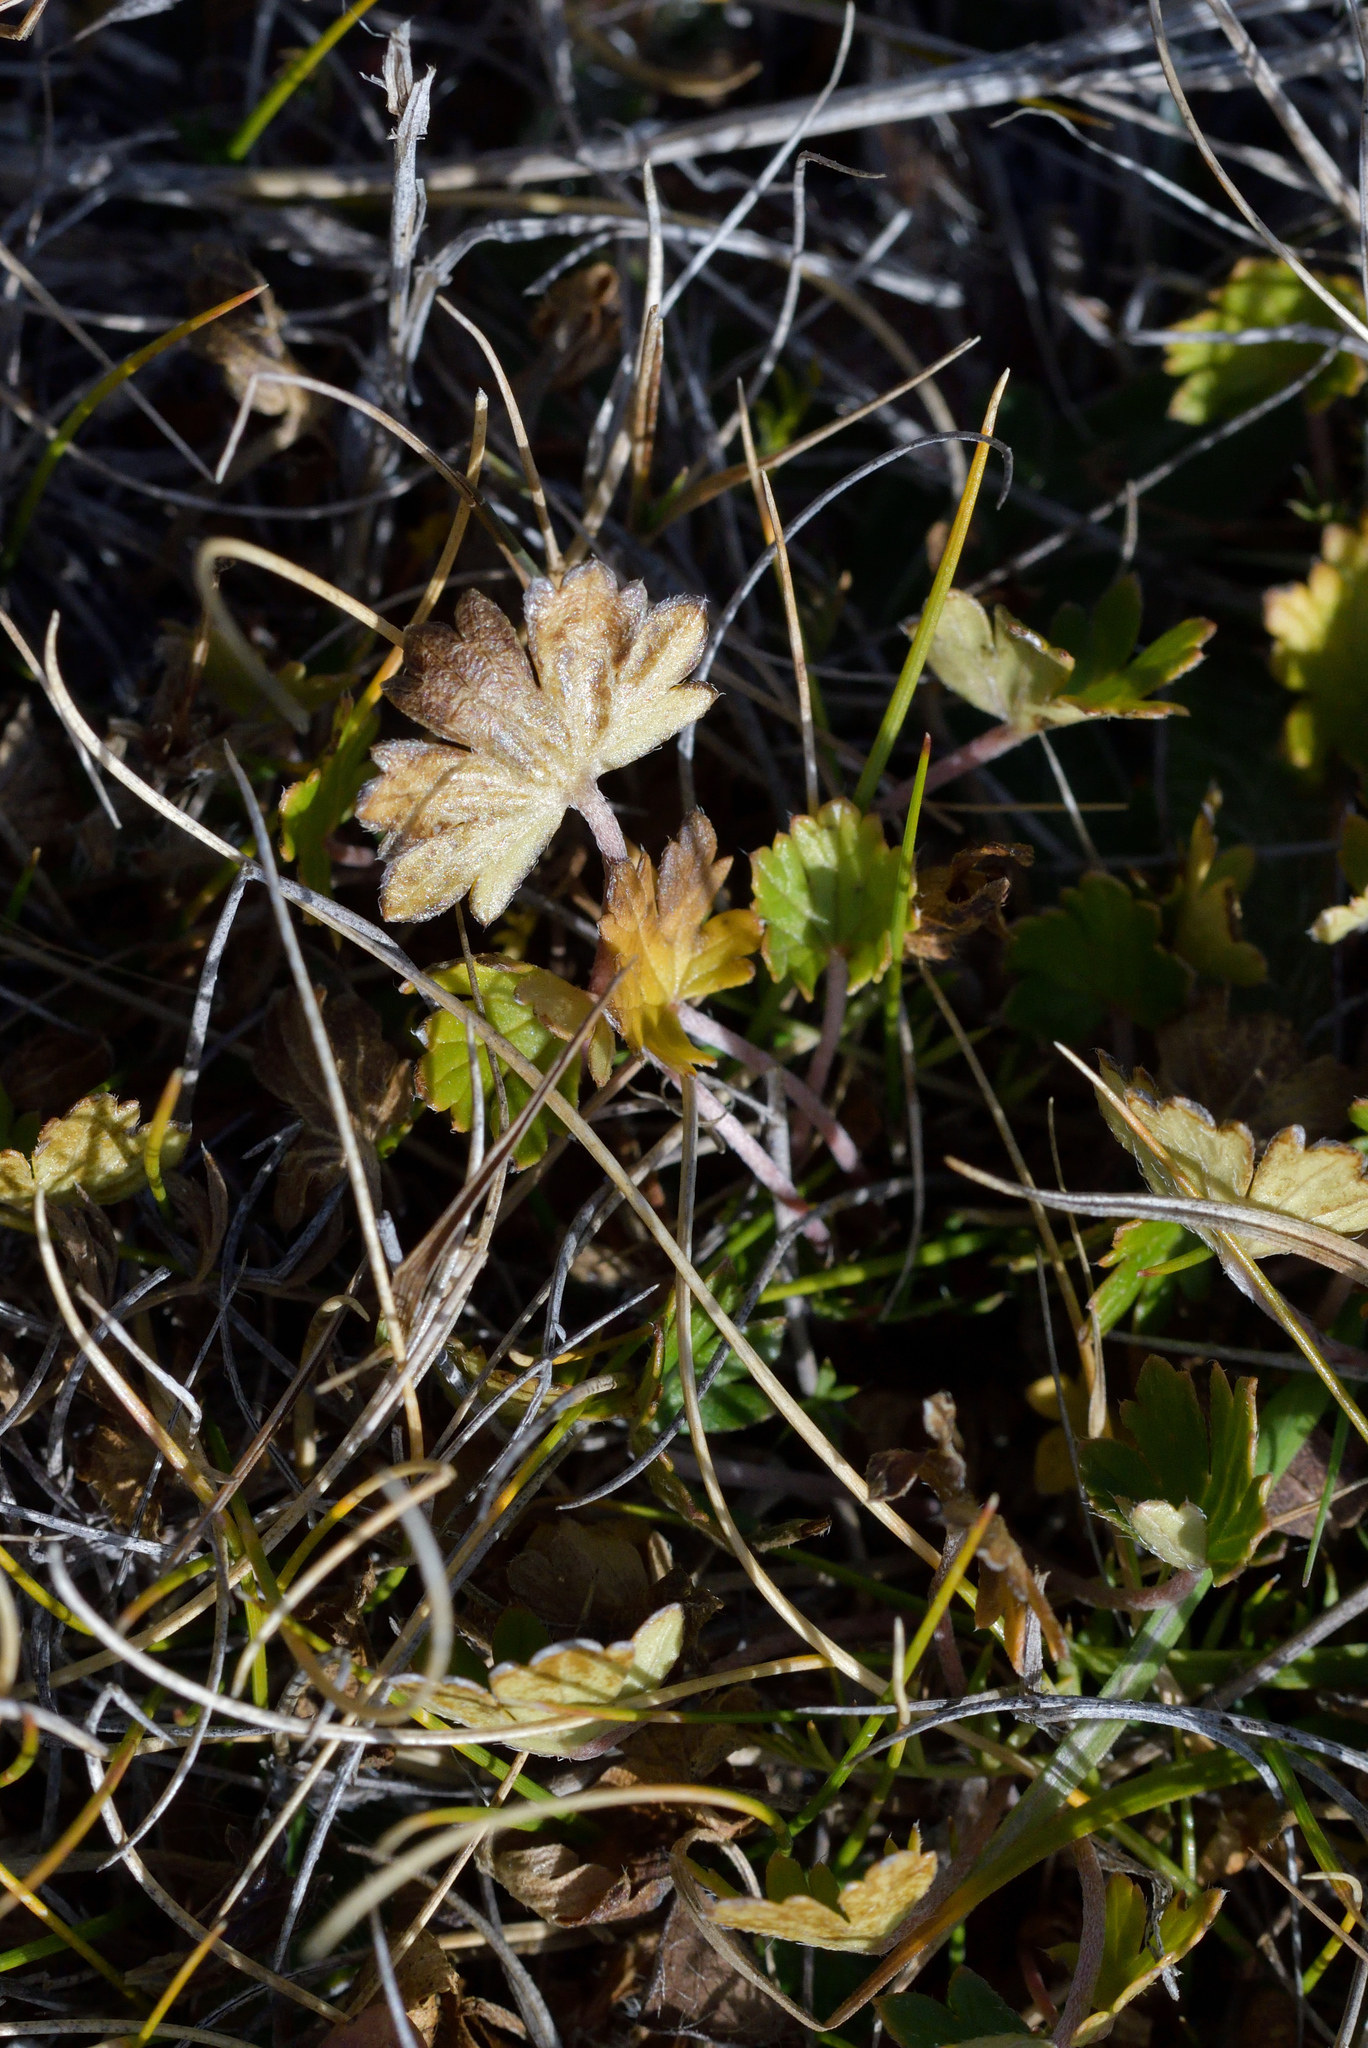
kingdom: Plantae
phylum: Tracheophyta
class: Magnoliopsida
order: Geraniales
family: Geraniaceae
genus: Geranium
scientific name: Geranium brevicaule
